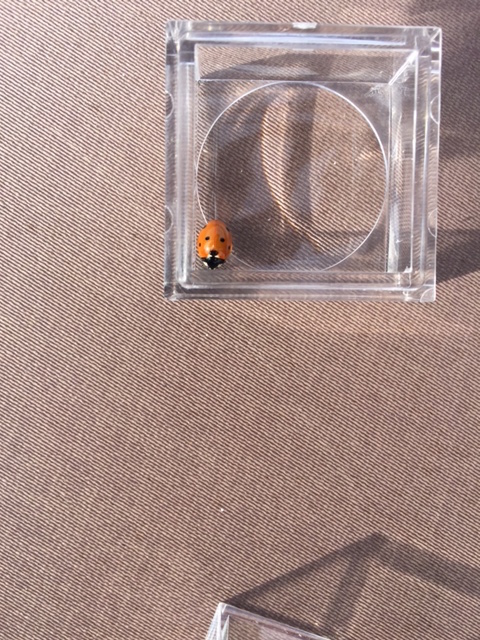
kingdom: Animalia
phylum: Arthropoda
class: Insecta
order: Coleoptera
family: Coccinellidae
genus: Coccinella
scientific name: Coccinella septempunctata
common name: Sevenspotted lady beetle
